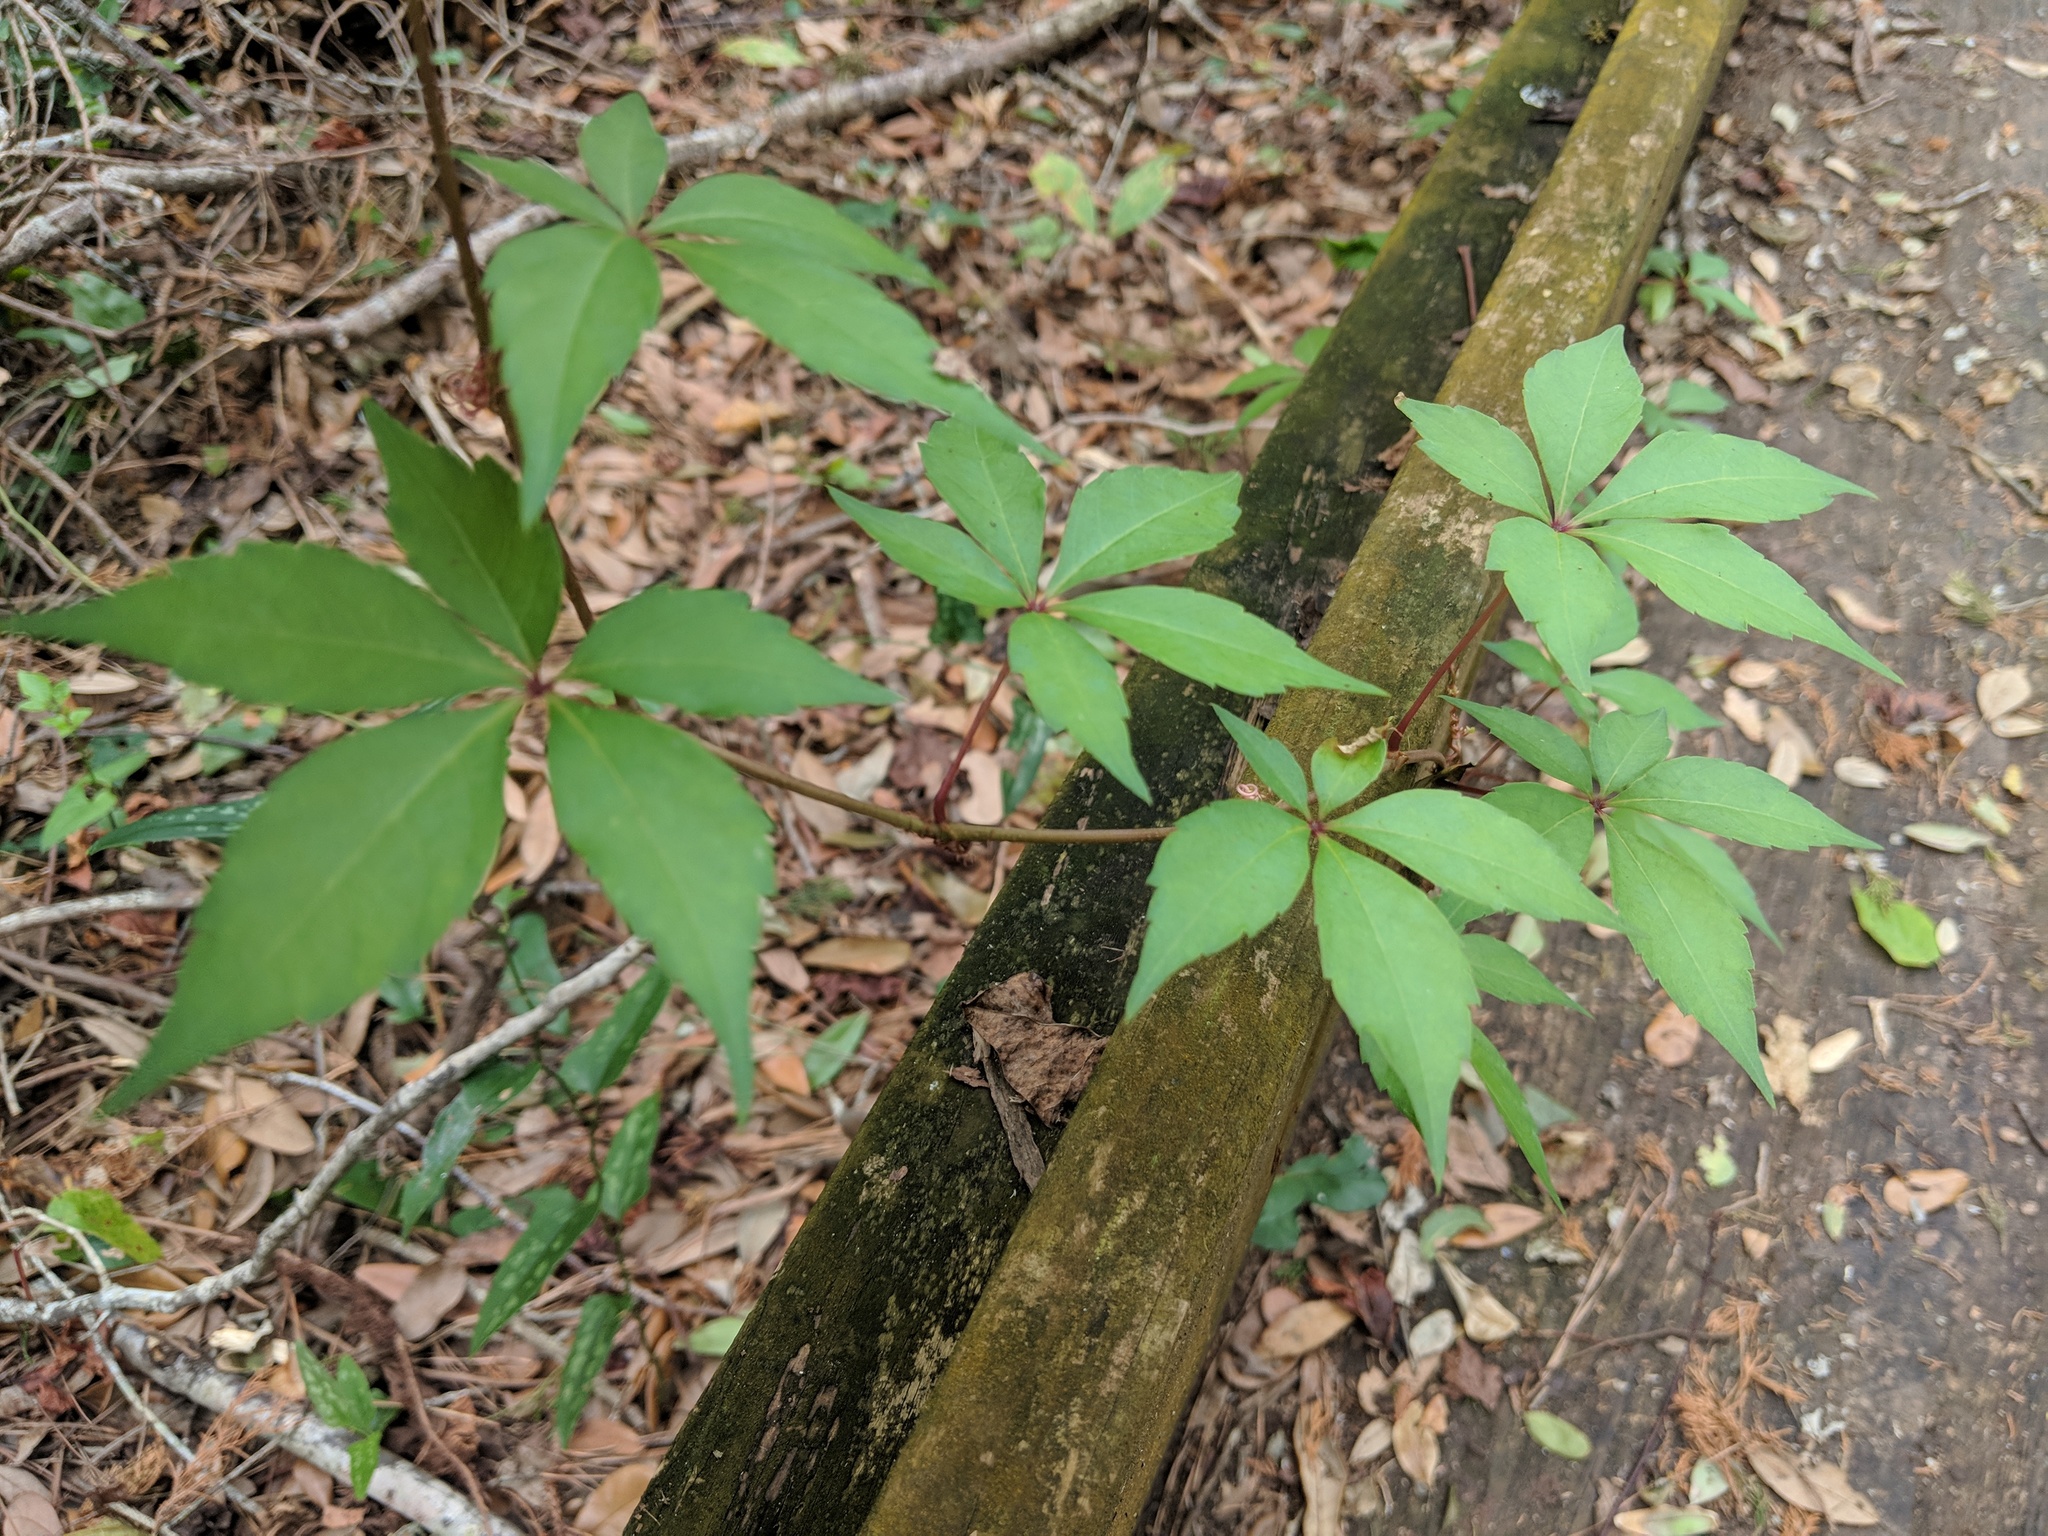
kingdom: Plantae
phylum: Tracheophyta
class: Magnoliopsida
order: Vitales
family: Vitaceae
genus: Parthenocissus
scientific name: Parthenocissus quinquefolia
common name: Virginia-creeper
